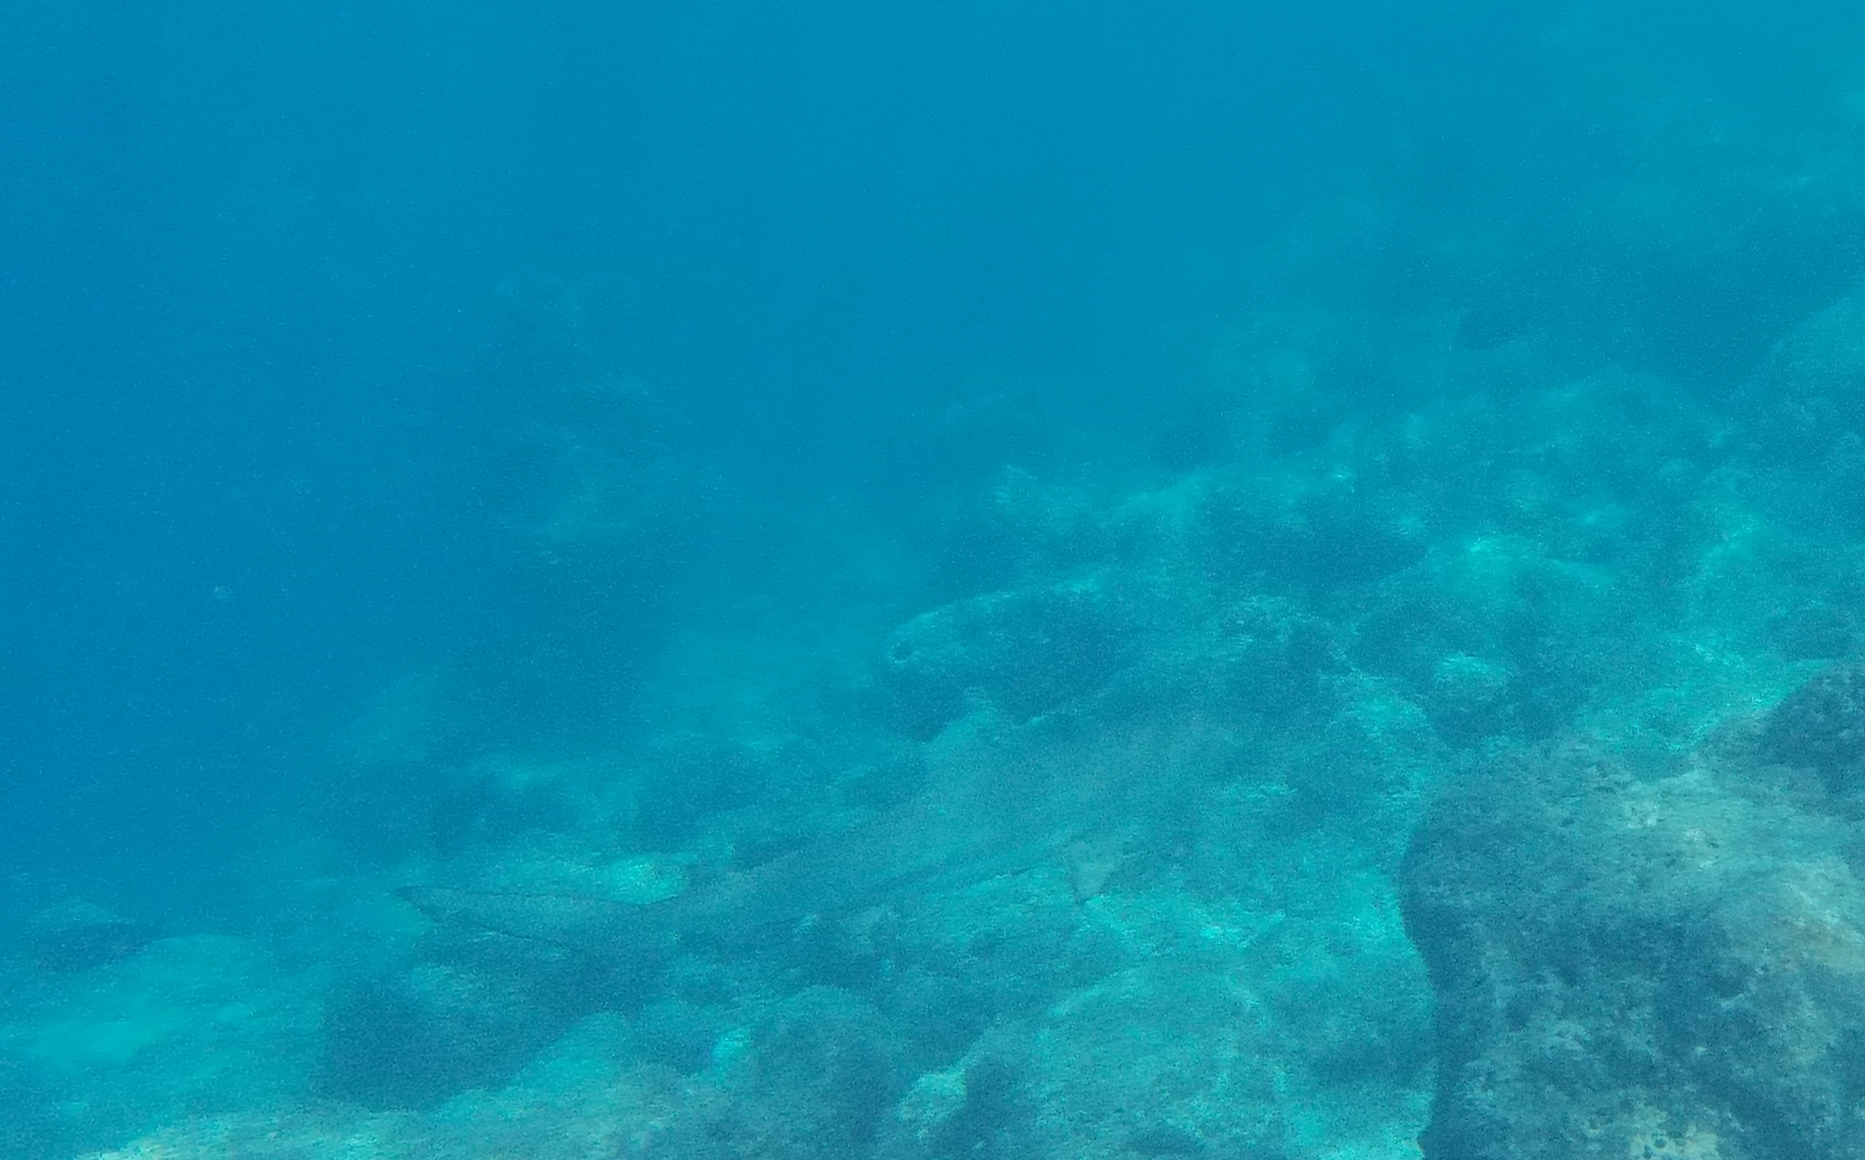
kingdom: Animalia
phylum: Chordata
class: Elasmobranchii
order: Carcharhiniformes
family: Carcharhinidae
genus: Carcharhinus
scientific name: Carcharhinus melanopterus
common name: Blacktip reef shark
